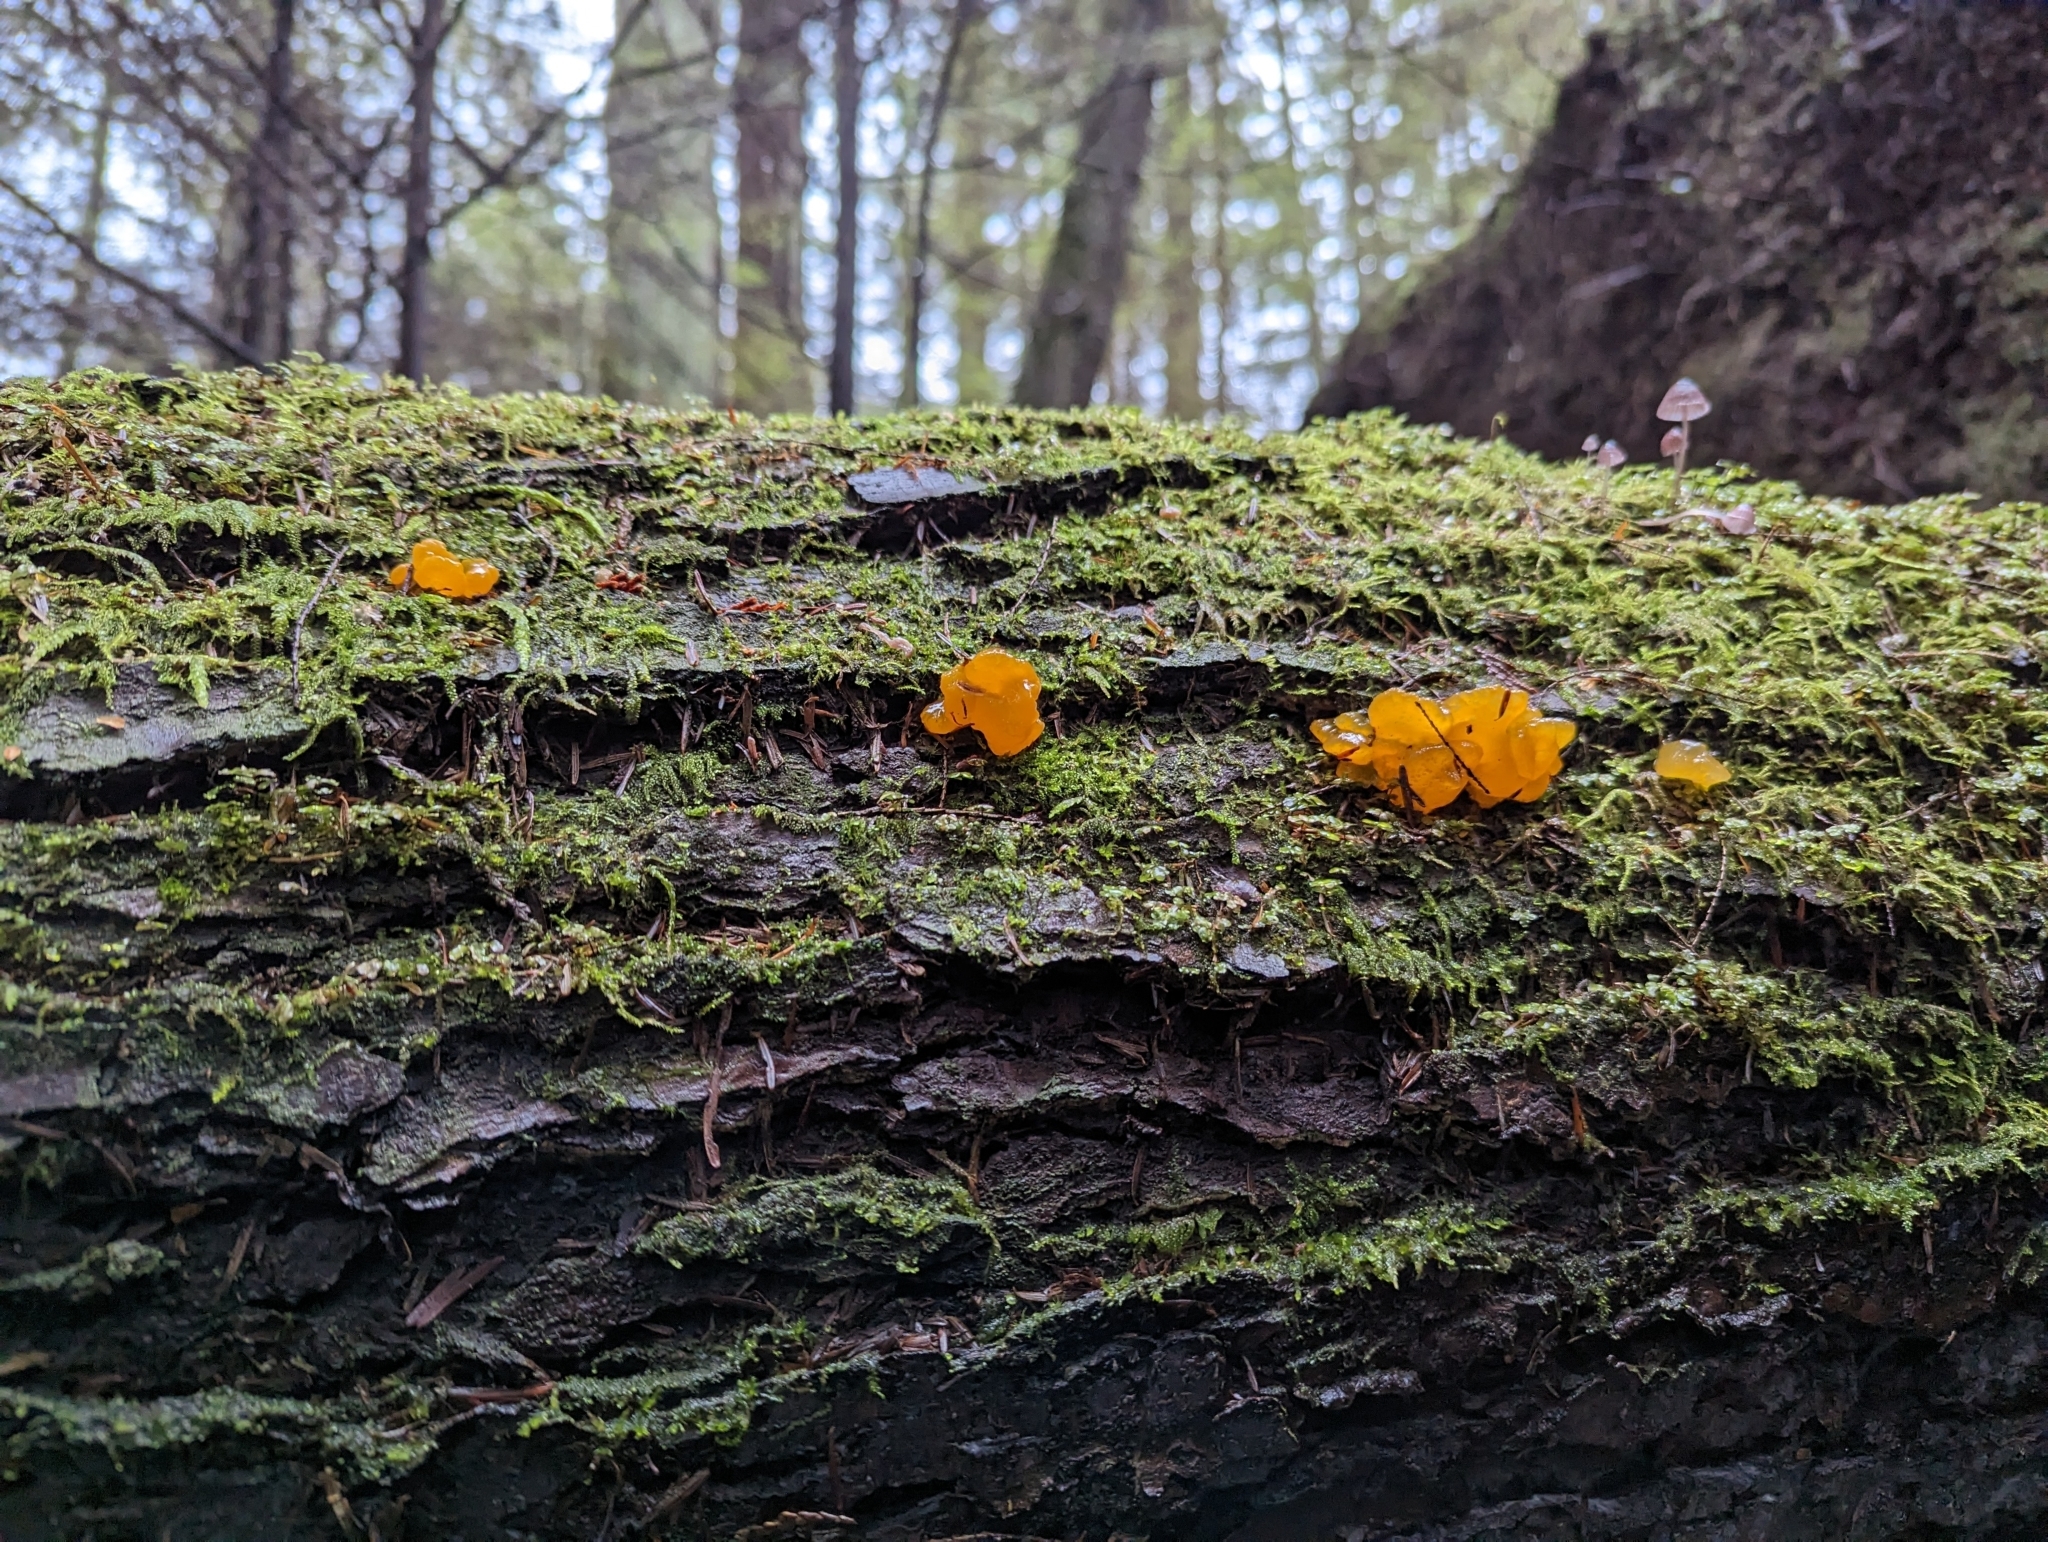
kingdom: Fungi
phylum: Basidiomycota
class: Dacrymycetes
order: Dacrymycetales
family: Dacrymycetaceae
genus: Dacrymyces
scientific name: Dacrymyces chrysospermus
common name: Orange jelly spot
